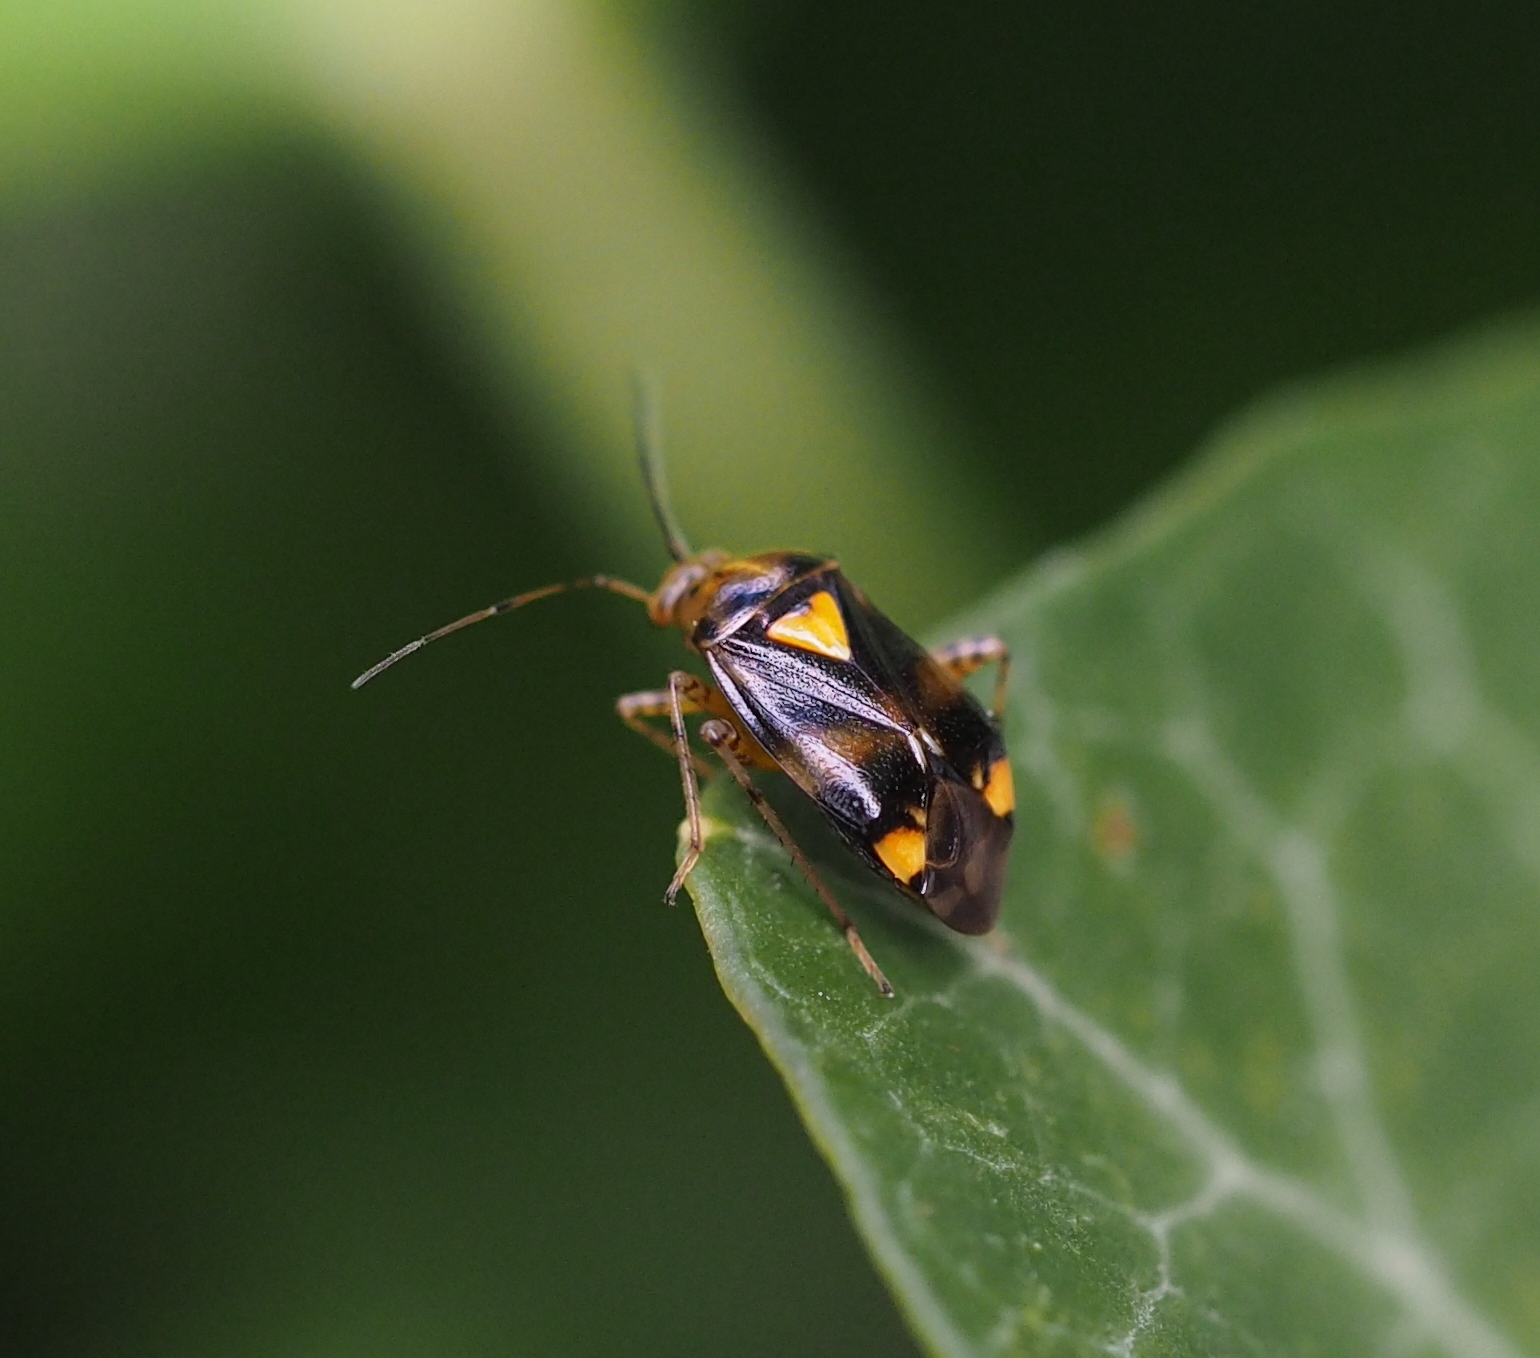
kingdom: Animalia
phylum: Arthropoda
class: Insecta
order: Hemiptera
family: Miridae
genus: Liocoris
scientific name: Liocoris tripustulatus
